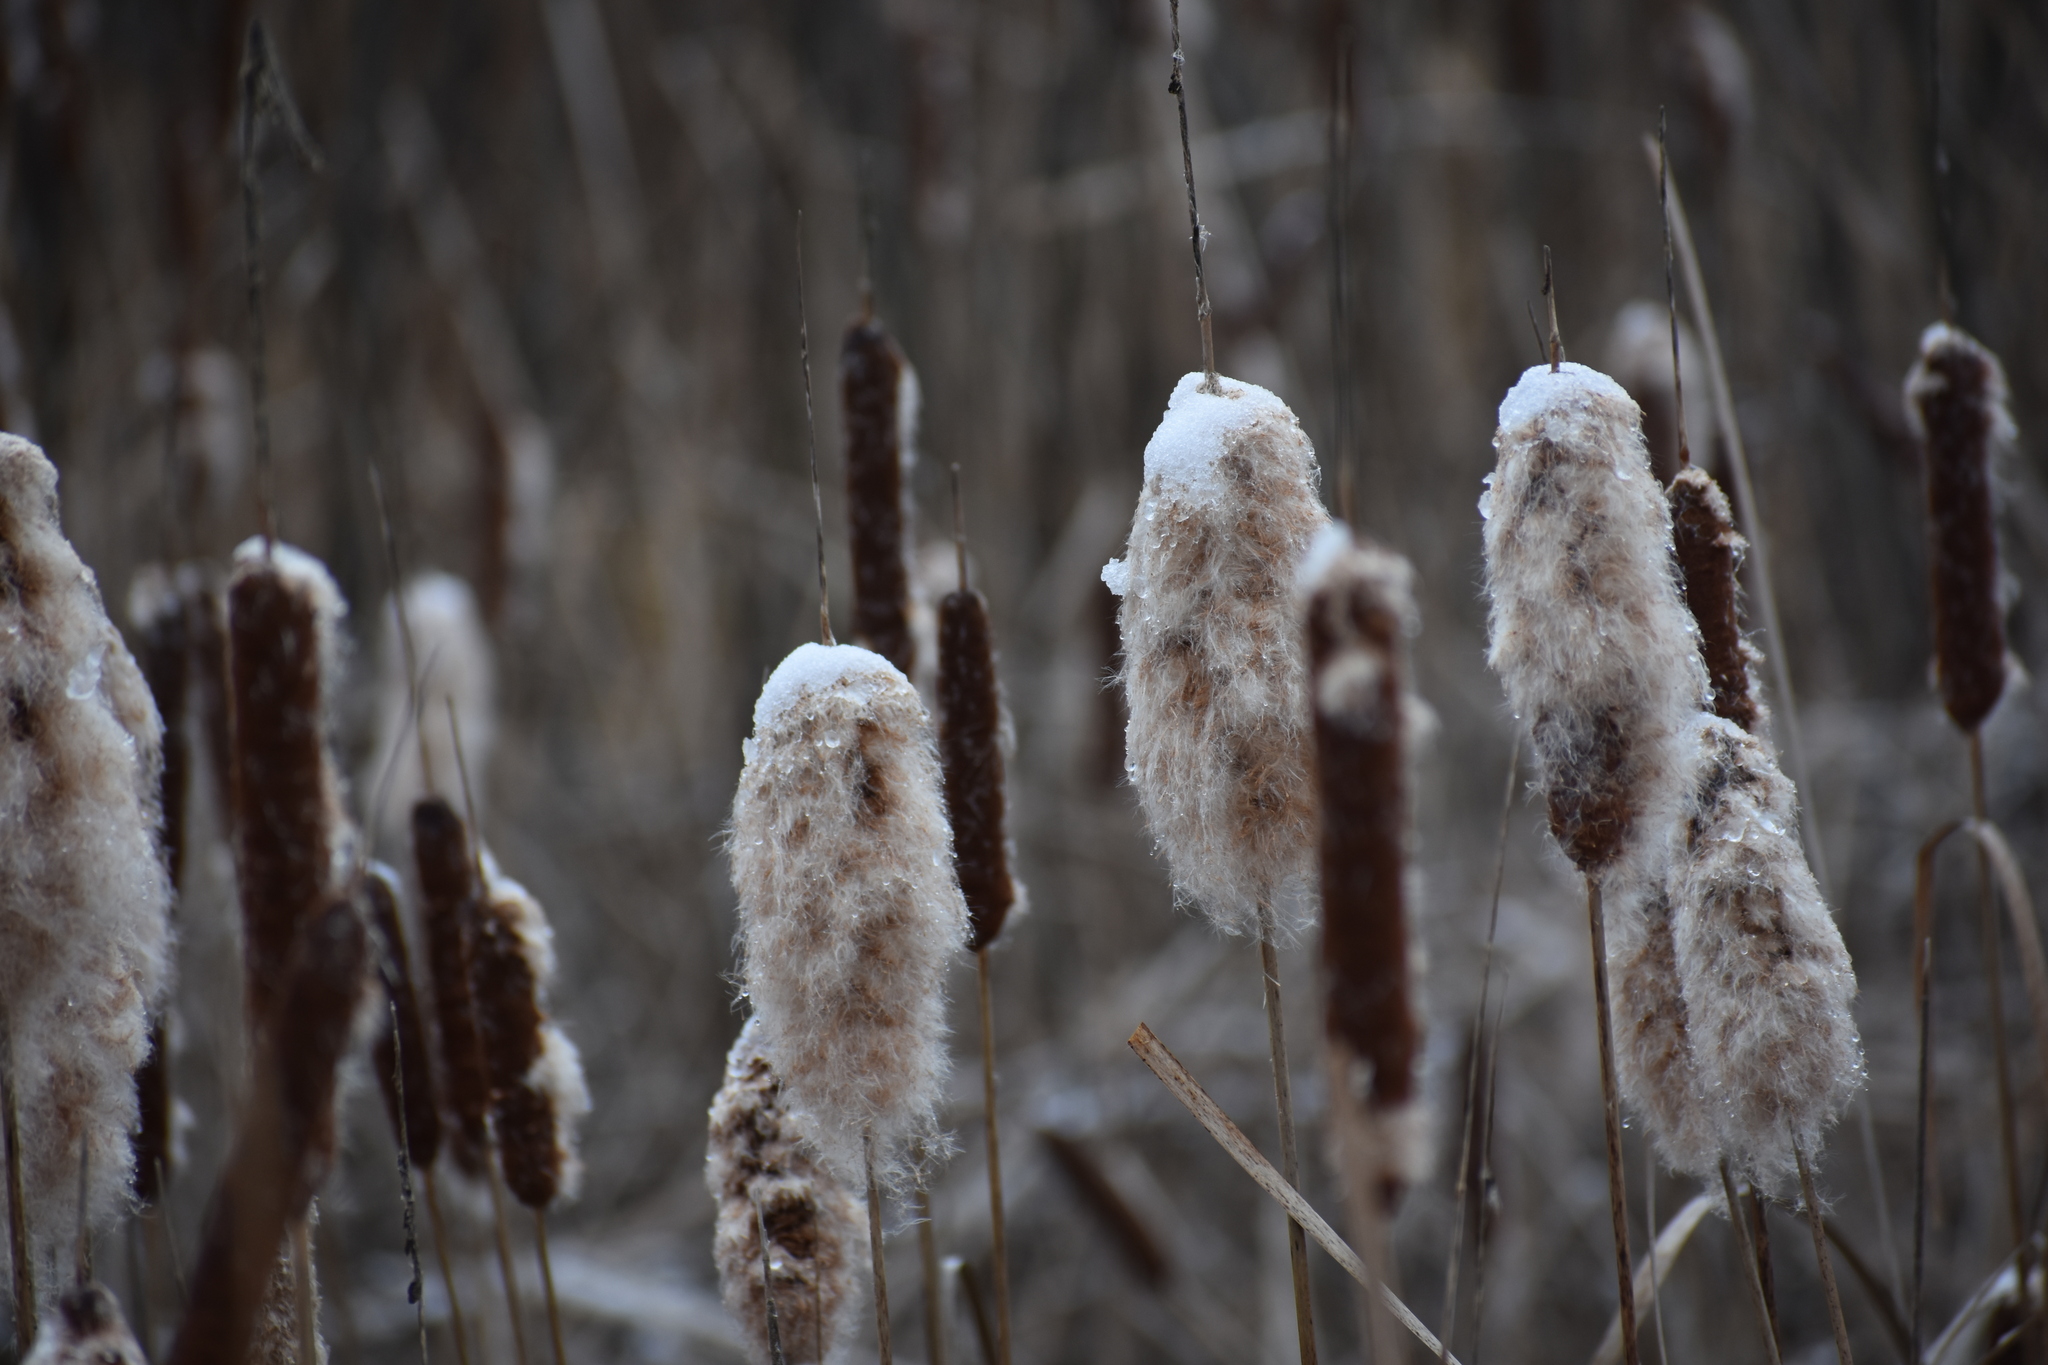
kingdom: Plantae
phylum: Tracheophyta
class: Liliopsida
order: Poales
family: Typhaceae
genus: Typha
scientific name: Typha
